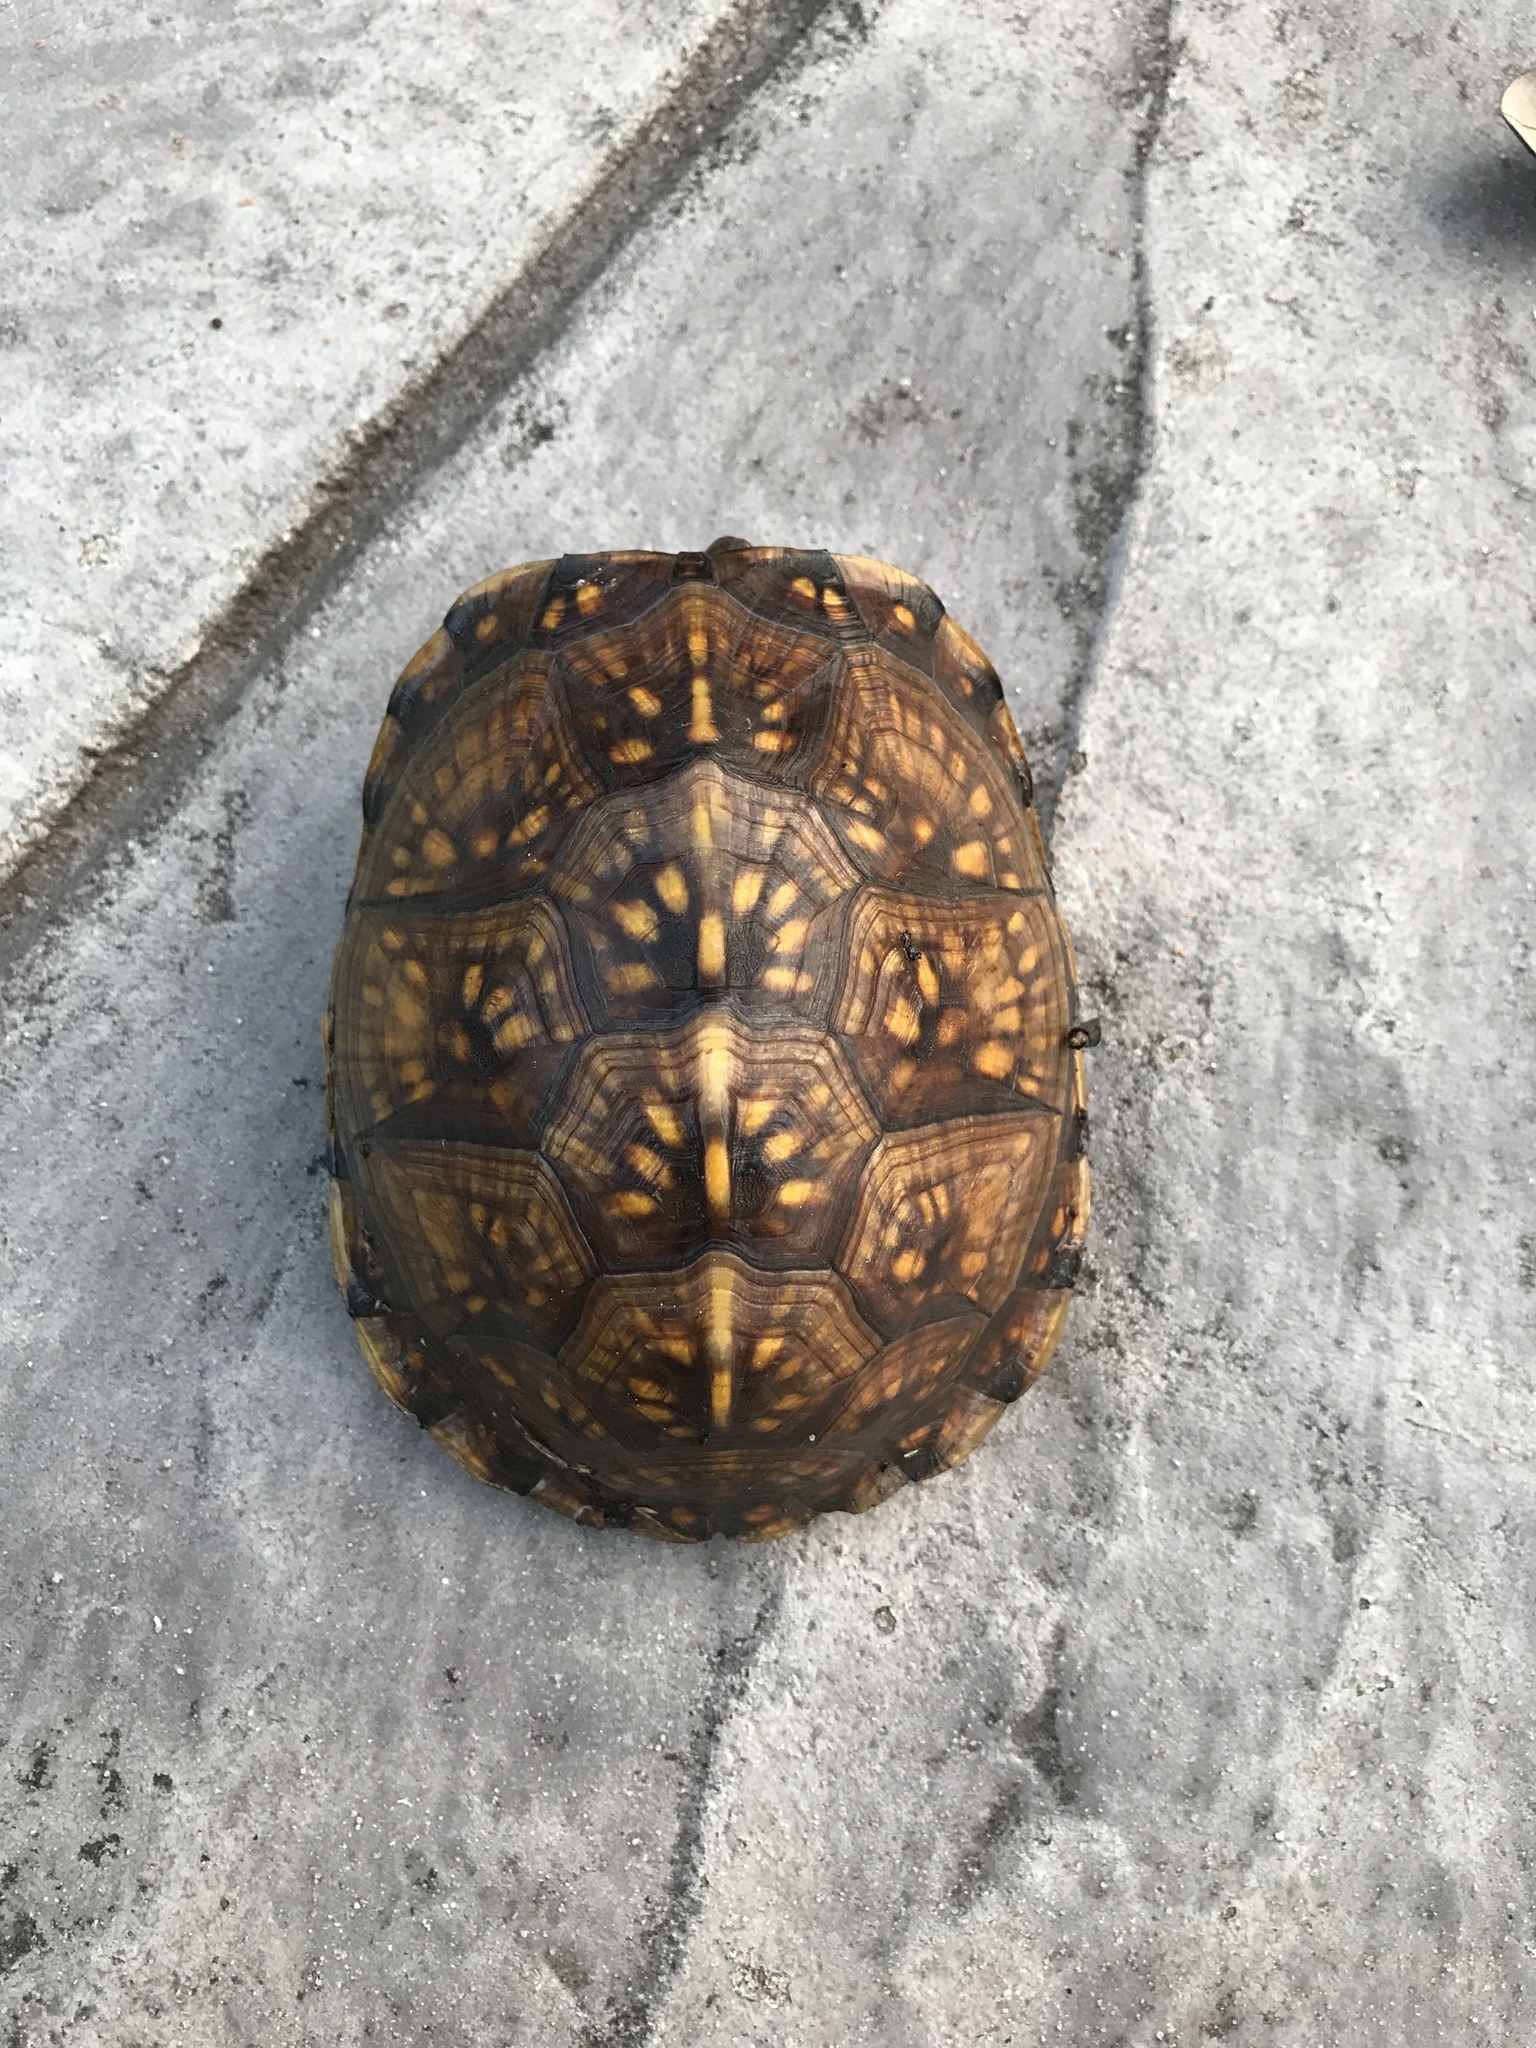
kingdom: Animalia
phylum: Chordata
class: Testudines
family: Emydidae
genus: Terrapene
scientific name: Terrapene carolina
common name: Common box turtle
